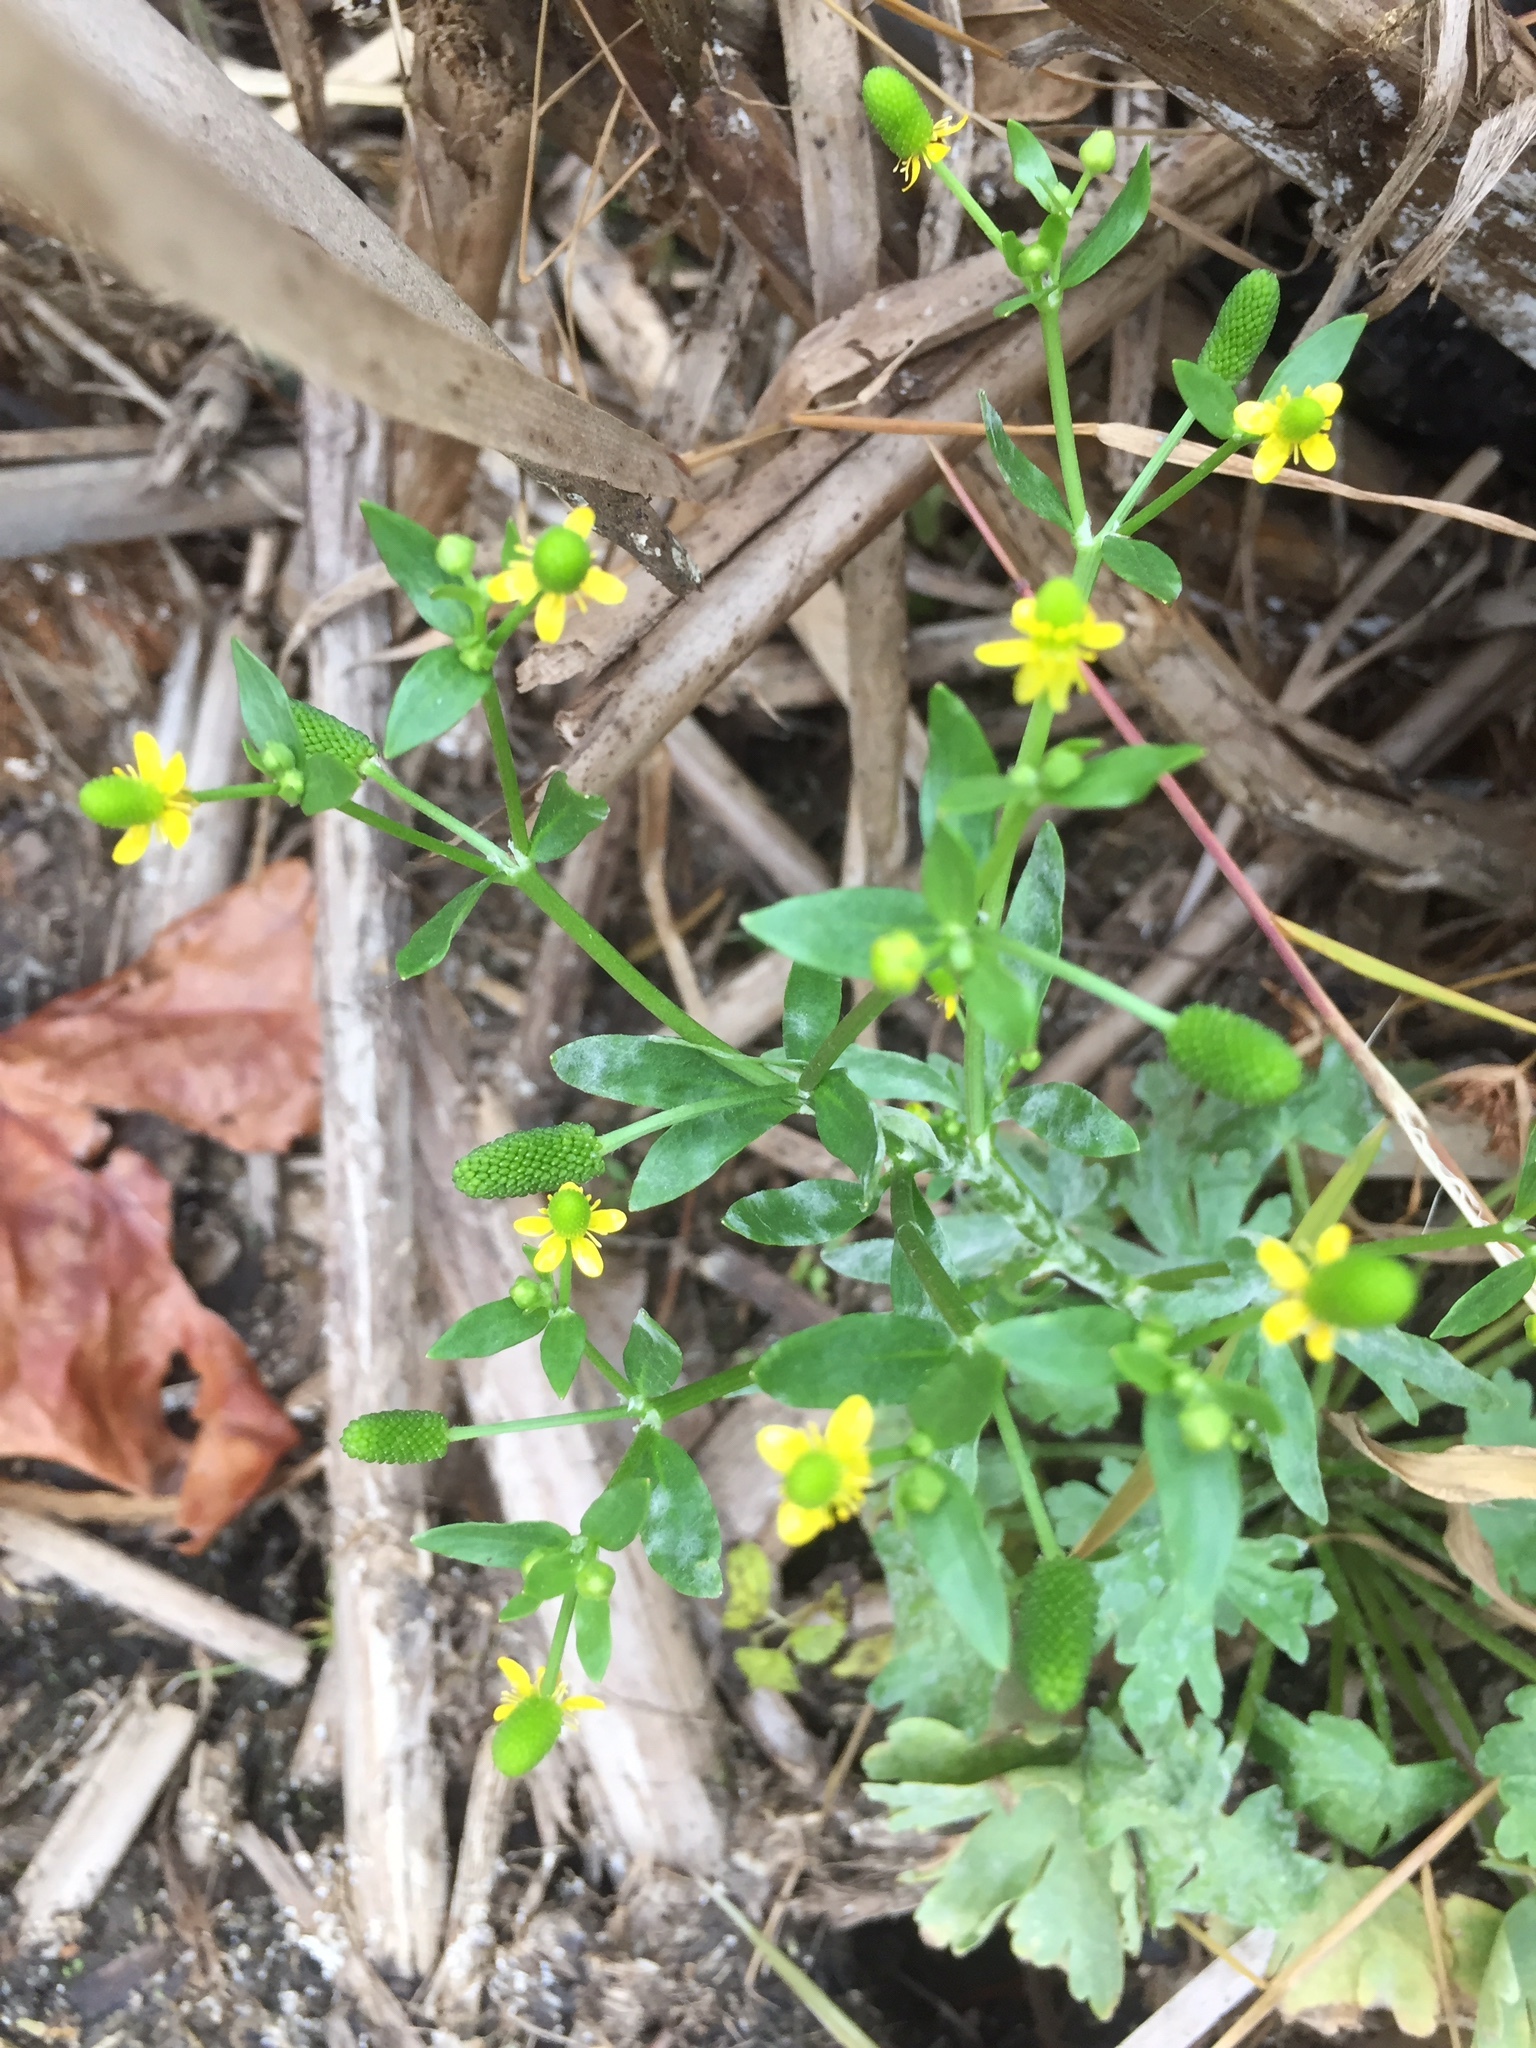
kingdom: Plantae
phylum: Tracheophyta
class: Magnoliopsida
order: Ranunculales
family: Ranunculaceae
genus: Ranunculus
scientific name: Ranunculus sceleratus
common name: Celery-leaved buttercup
